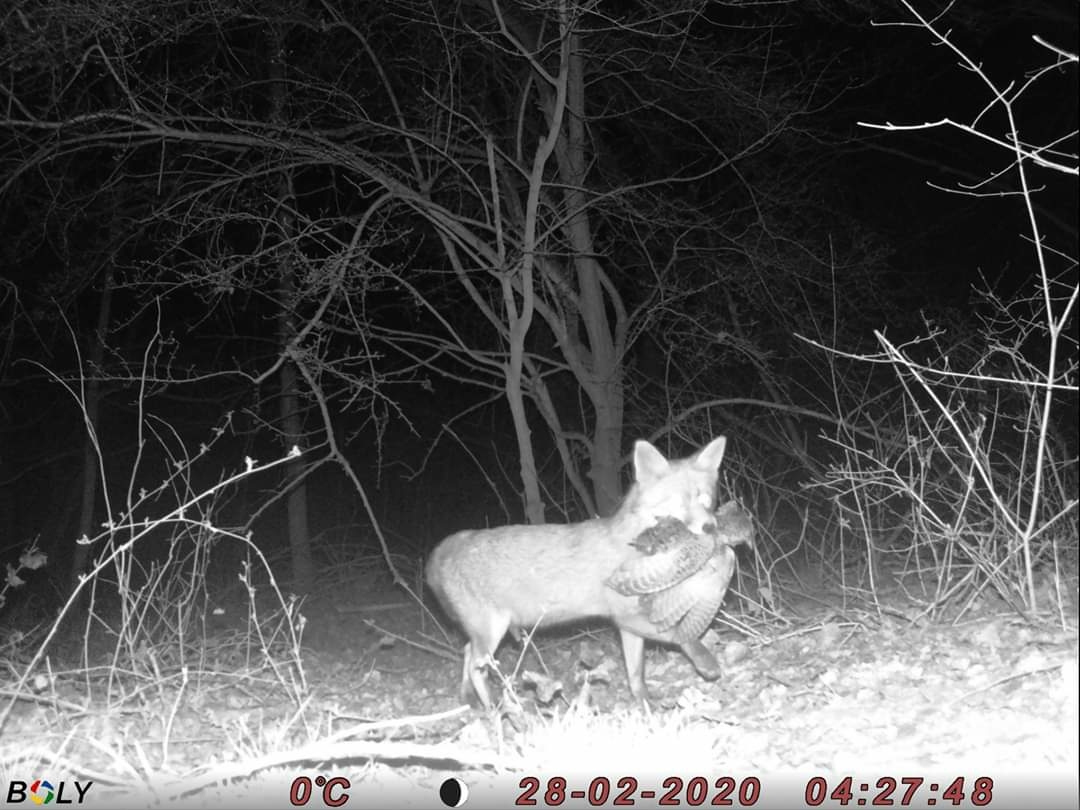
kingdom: Animalia
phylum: Chordata
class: Mammalia
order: Carnivora
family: Canidae
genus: Vulpes
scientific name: Vulpes vulpes
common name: Red fox
